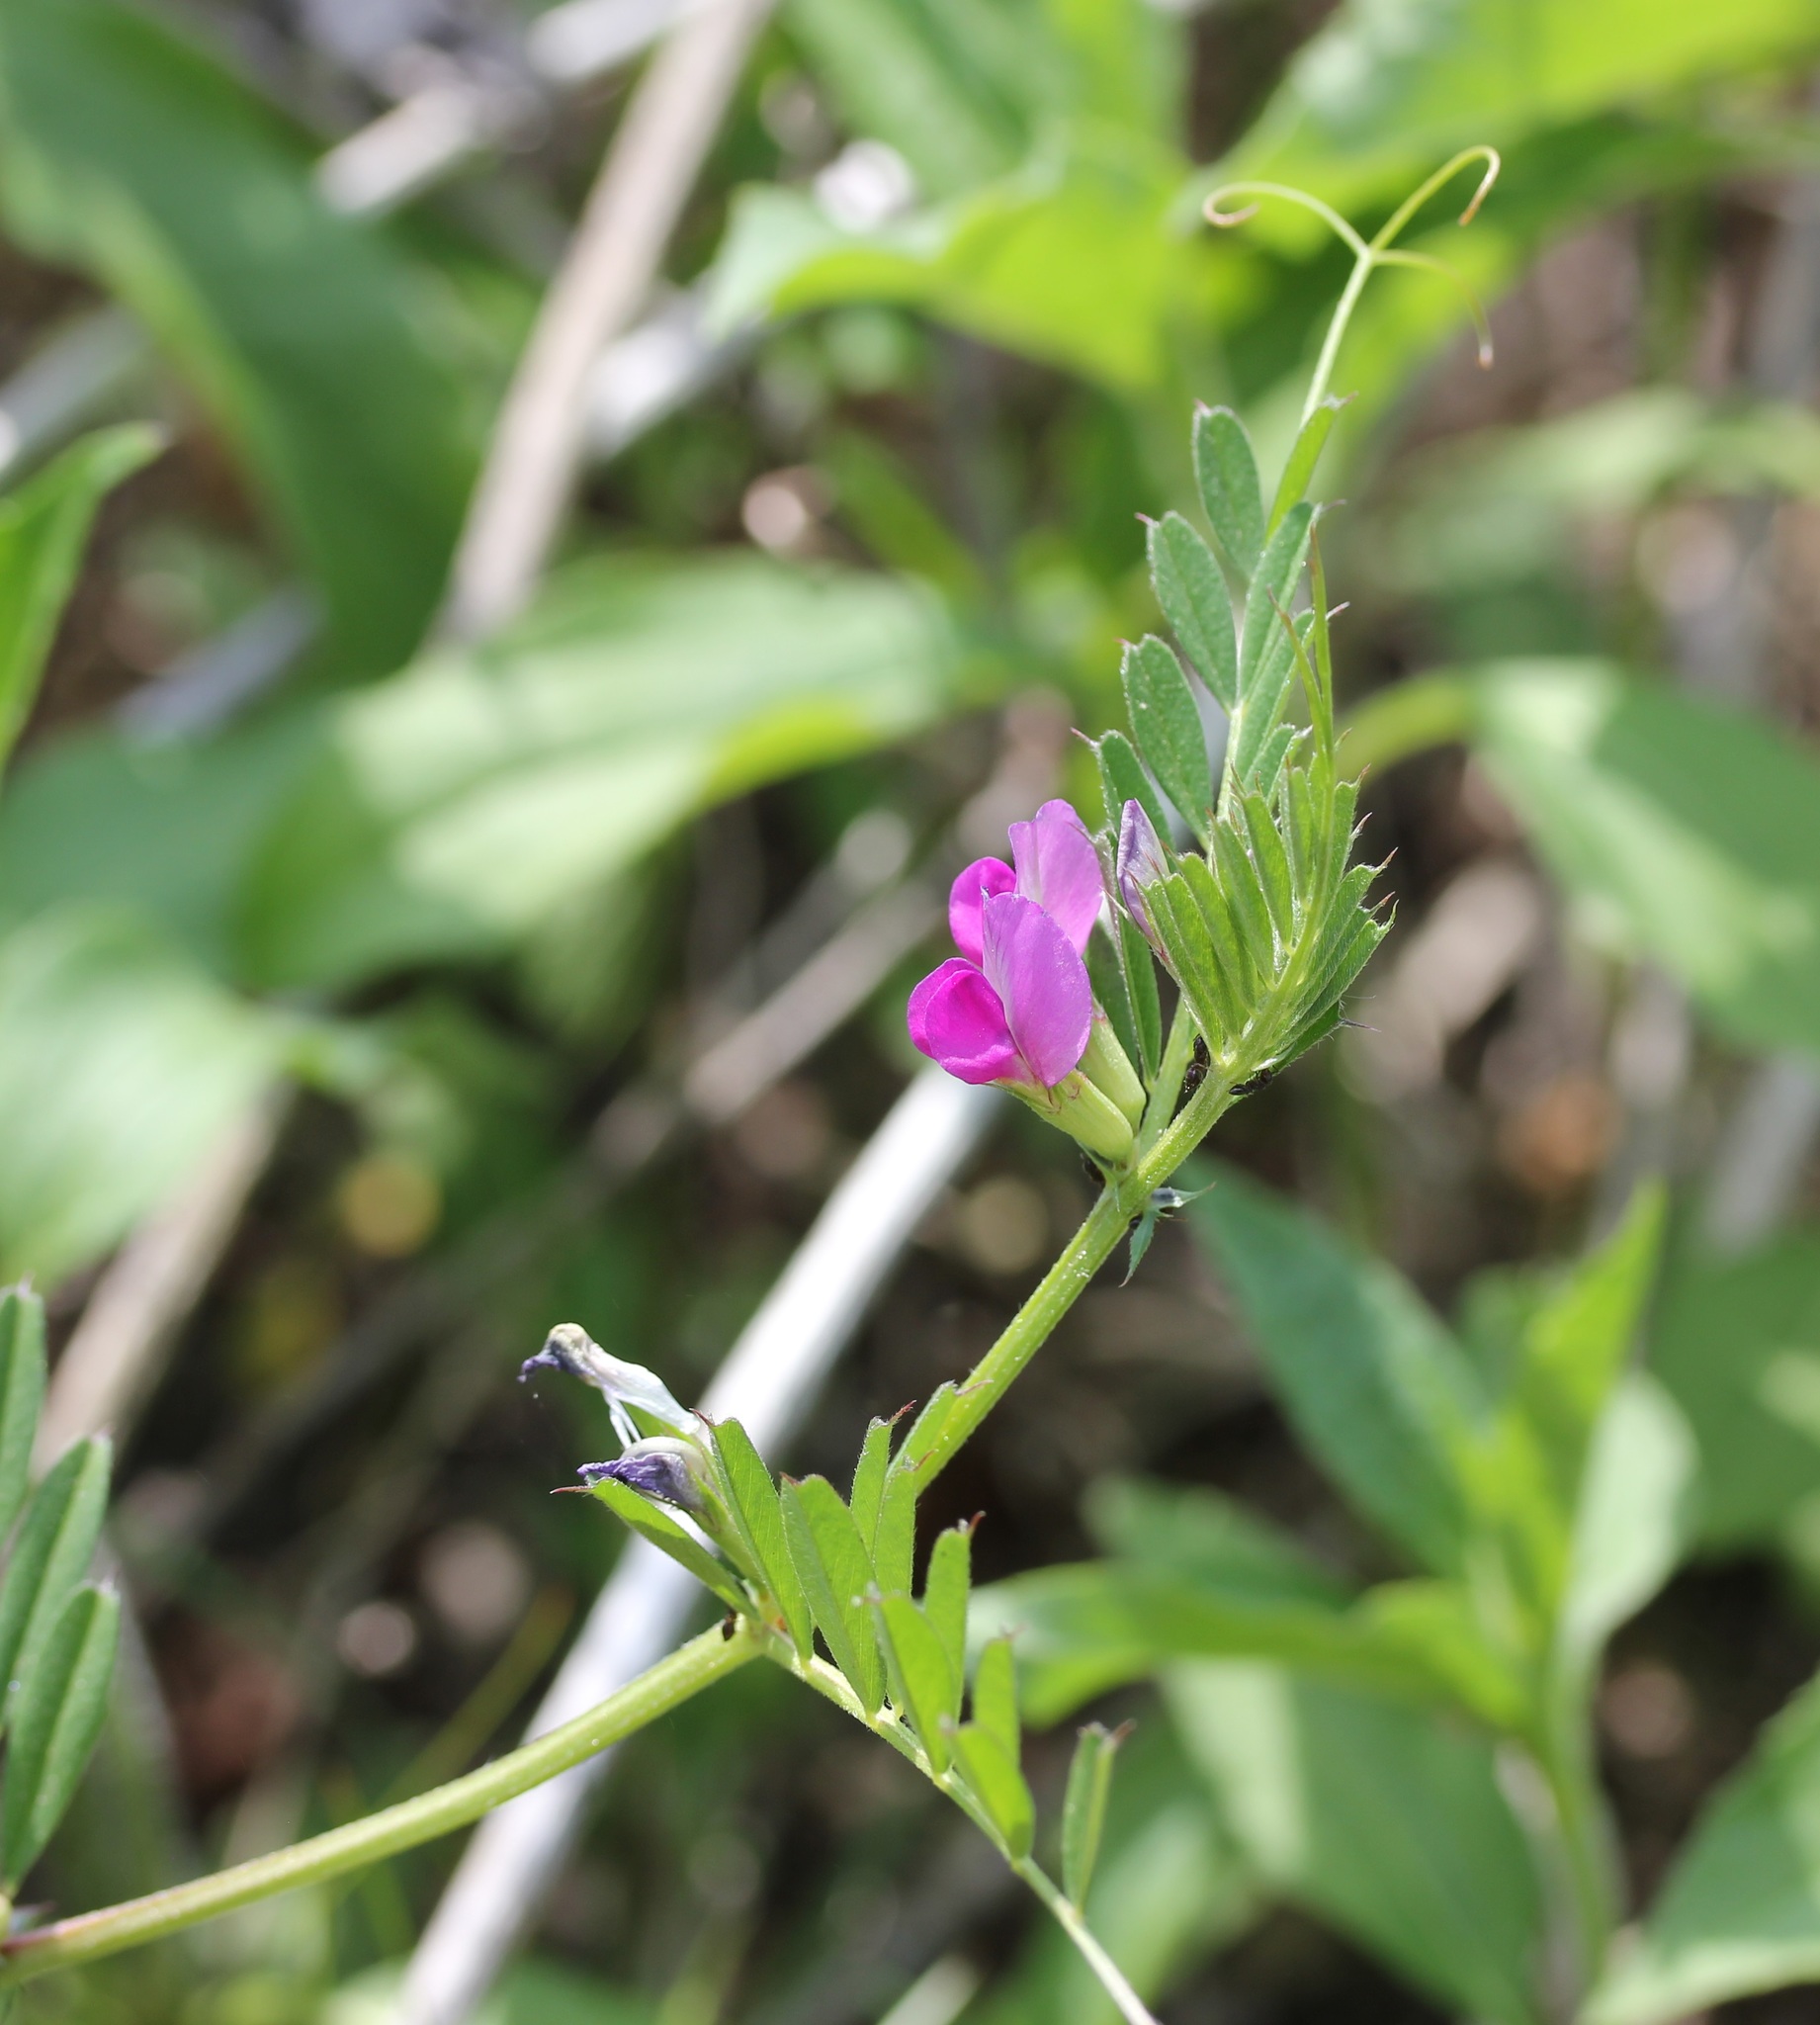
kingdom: Plantae
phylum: Tracheophyta
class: Magnoliopsida
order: Fabales
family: Fabaceae
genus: Vicia
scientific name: Vicia sativa
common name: Garden vetch
